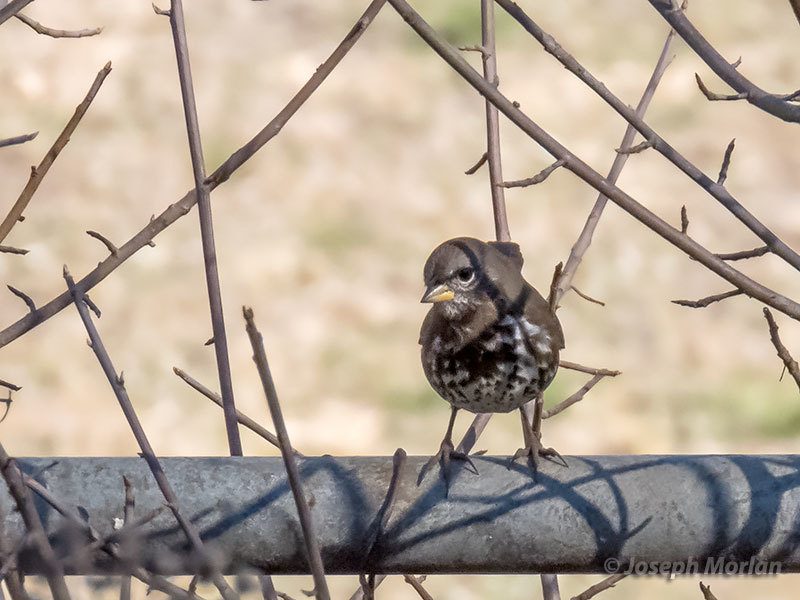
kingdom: Animalia
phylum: Chordata
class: Aves
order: Passeriformes
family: Passerellidae
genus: Passerella
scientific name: Passerella iliaca
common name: Fox sparrow
